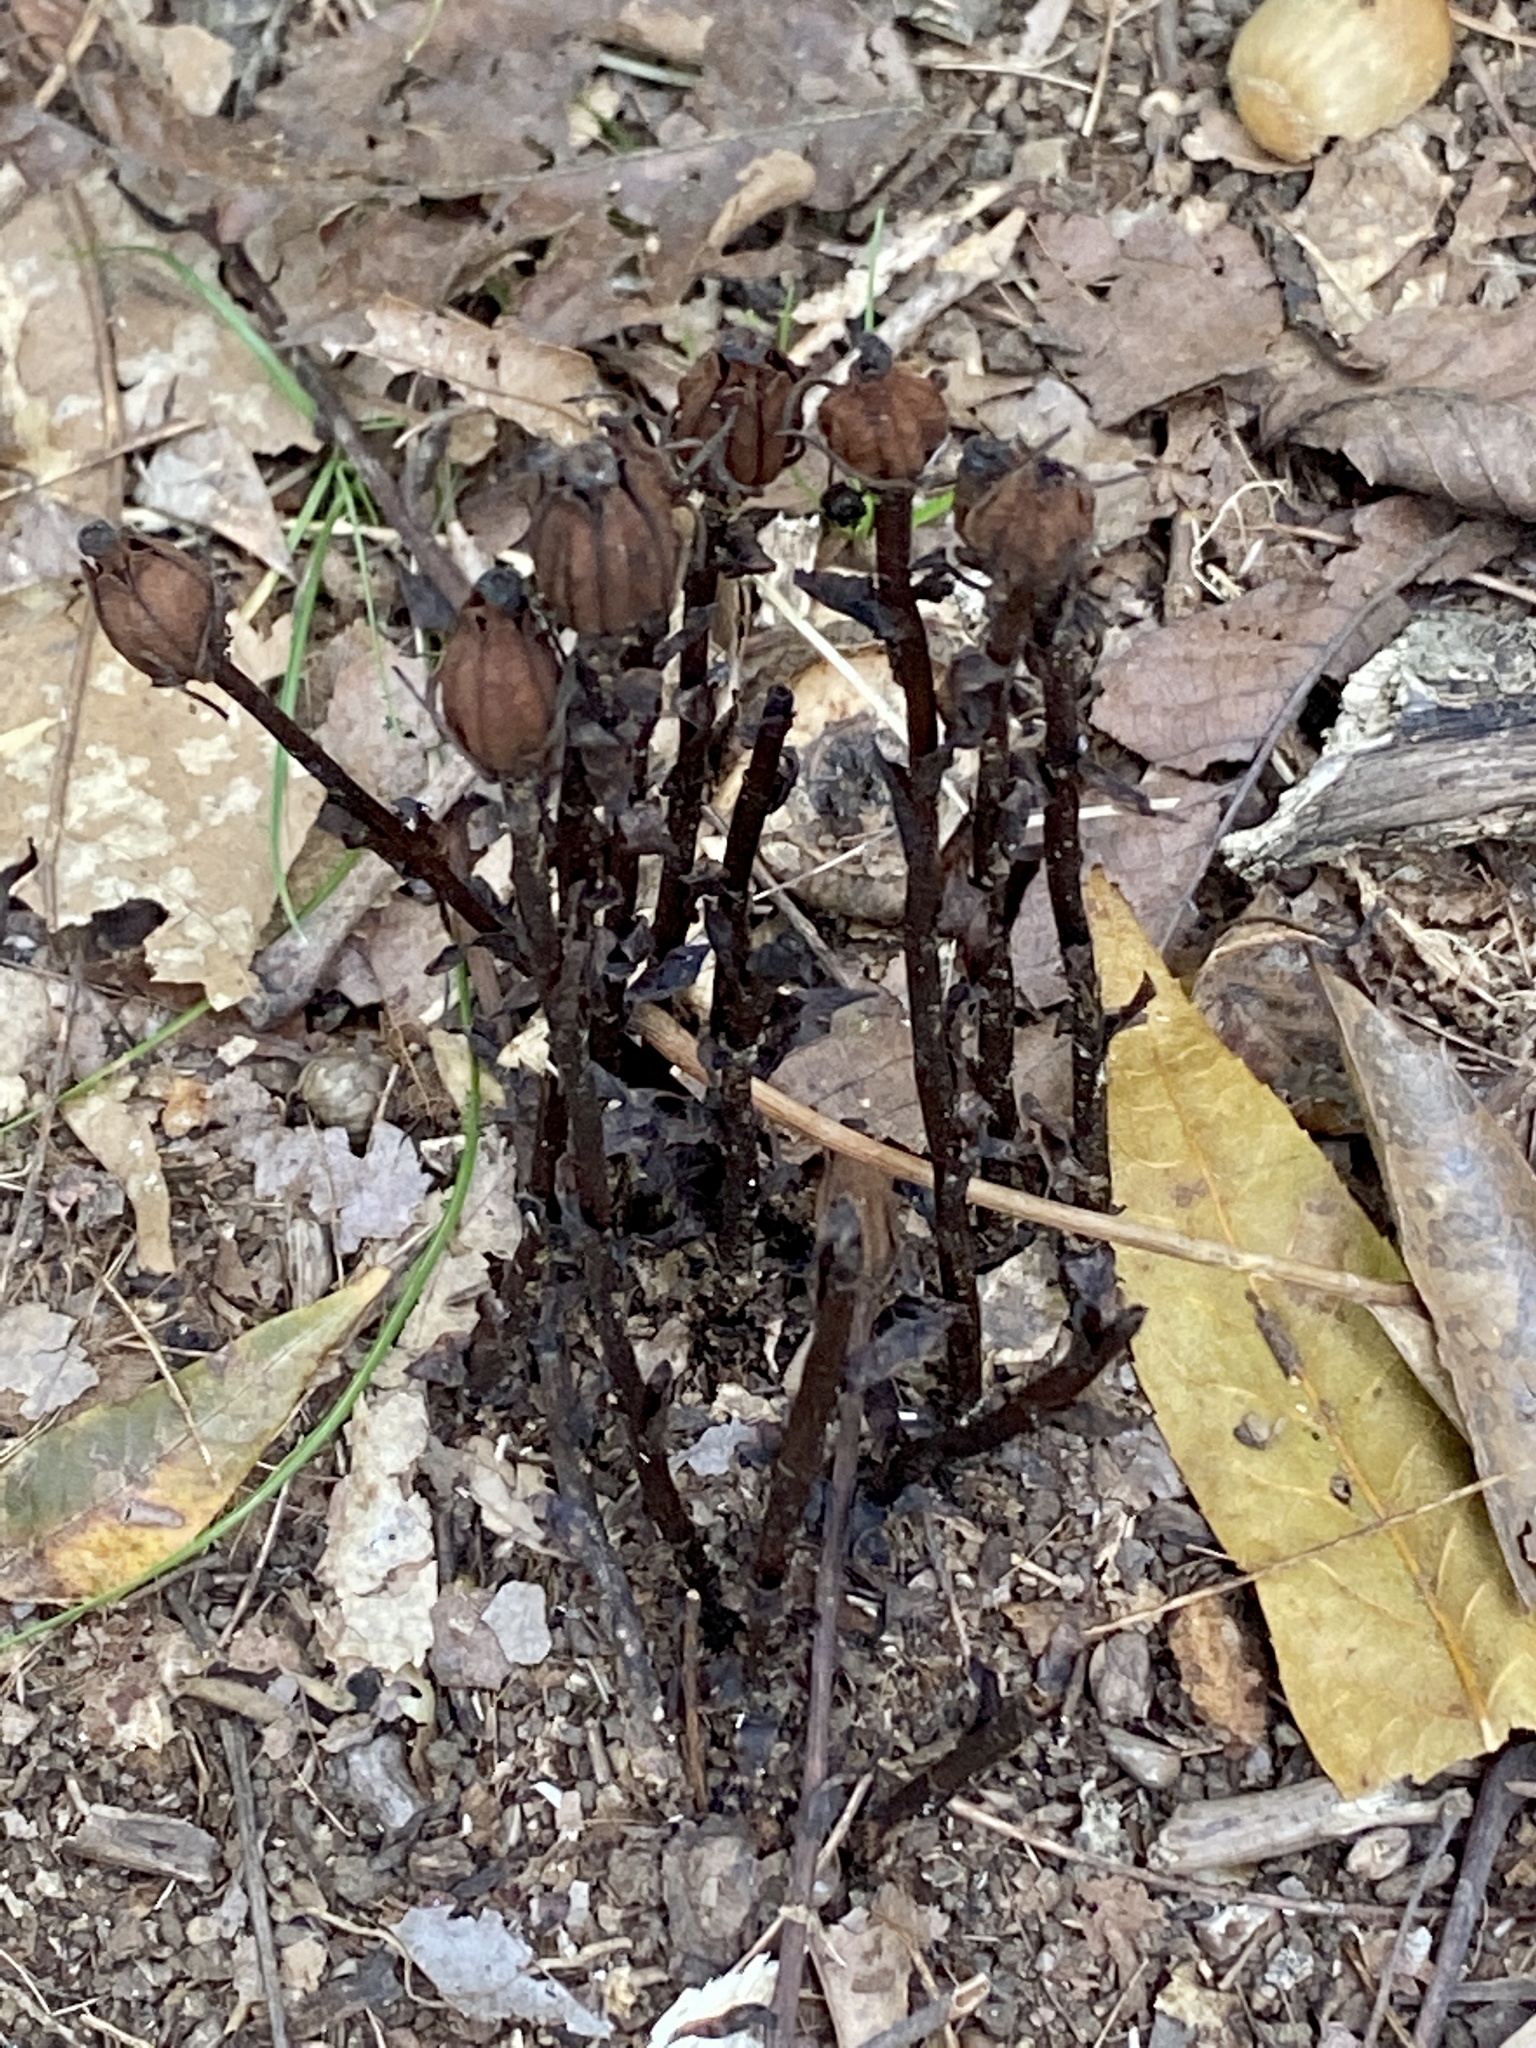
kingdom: Plantae
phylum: Tracheophyta
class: Magnoliopsida
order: Ericales
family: Ericaceae
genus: Monotropa
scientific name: Monotropa uniflora
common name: Convulsion root
